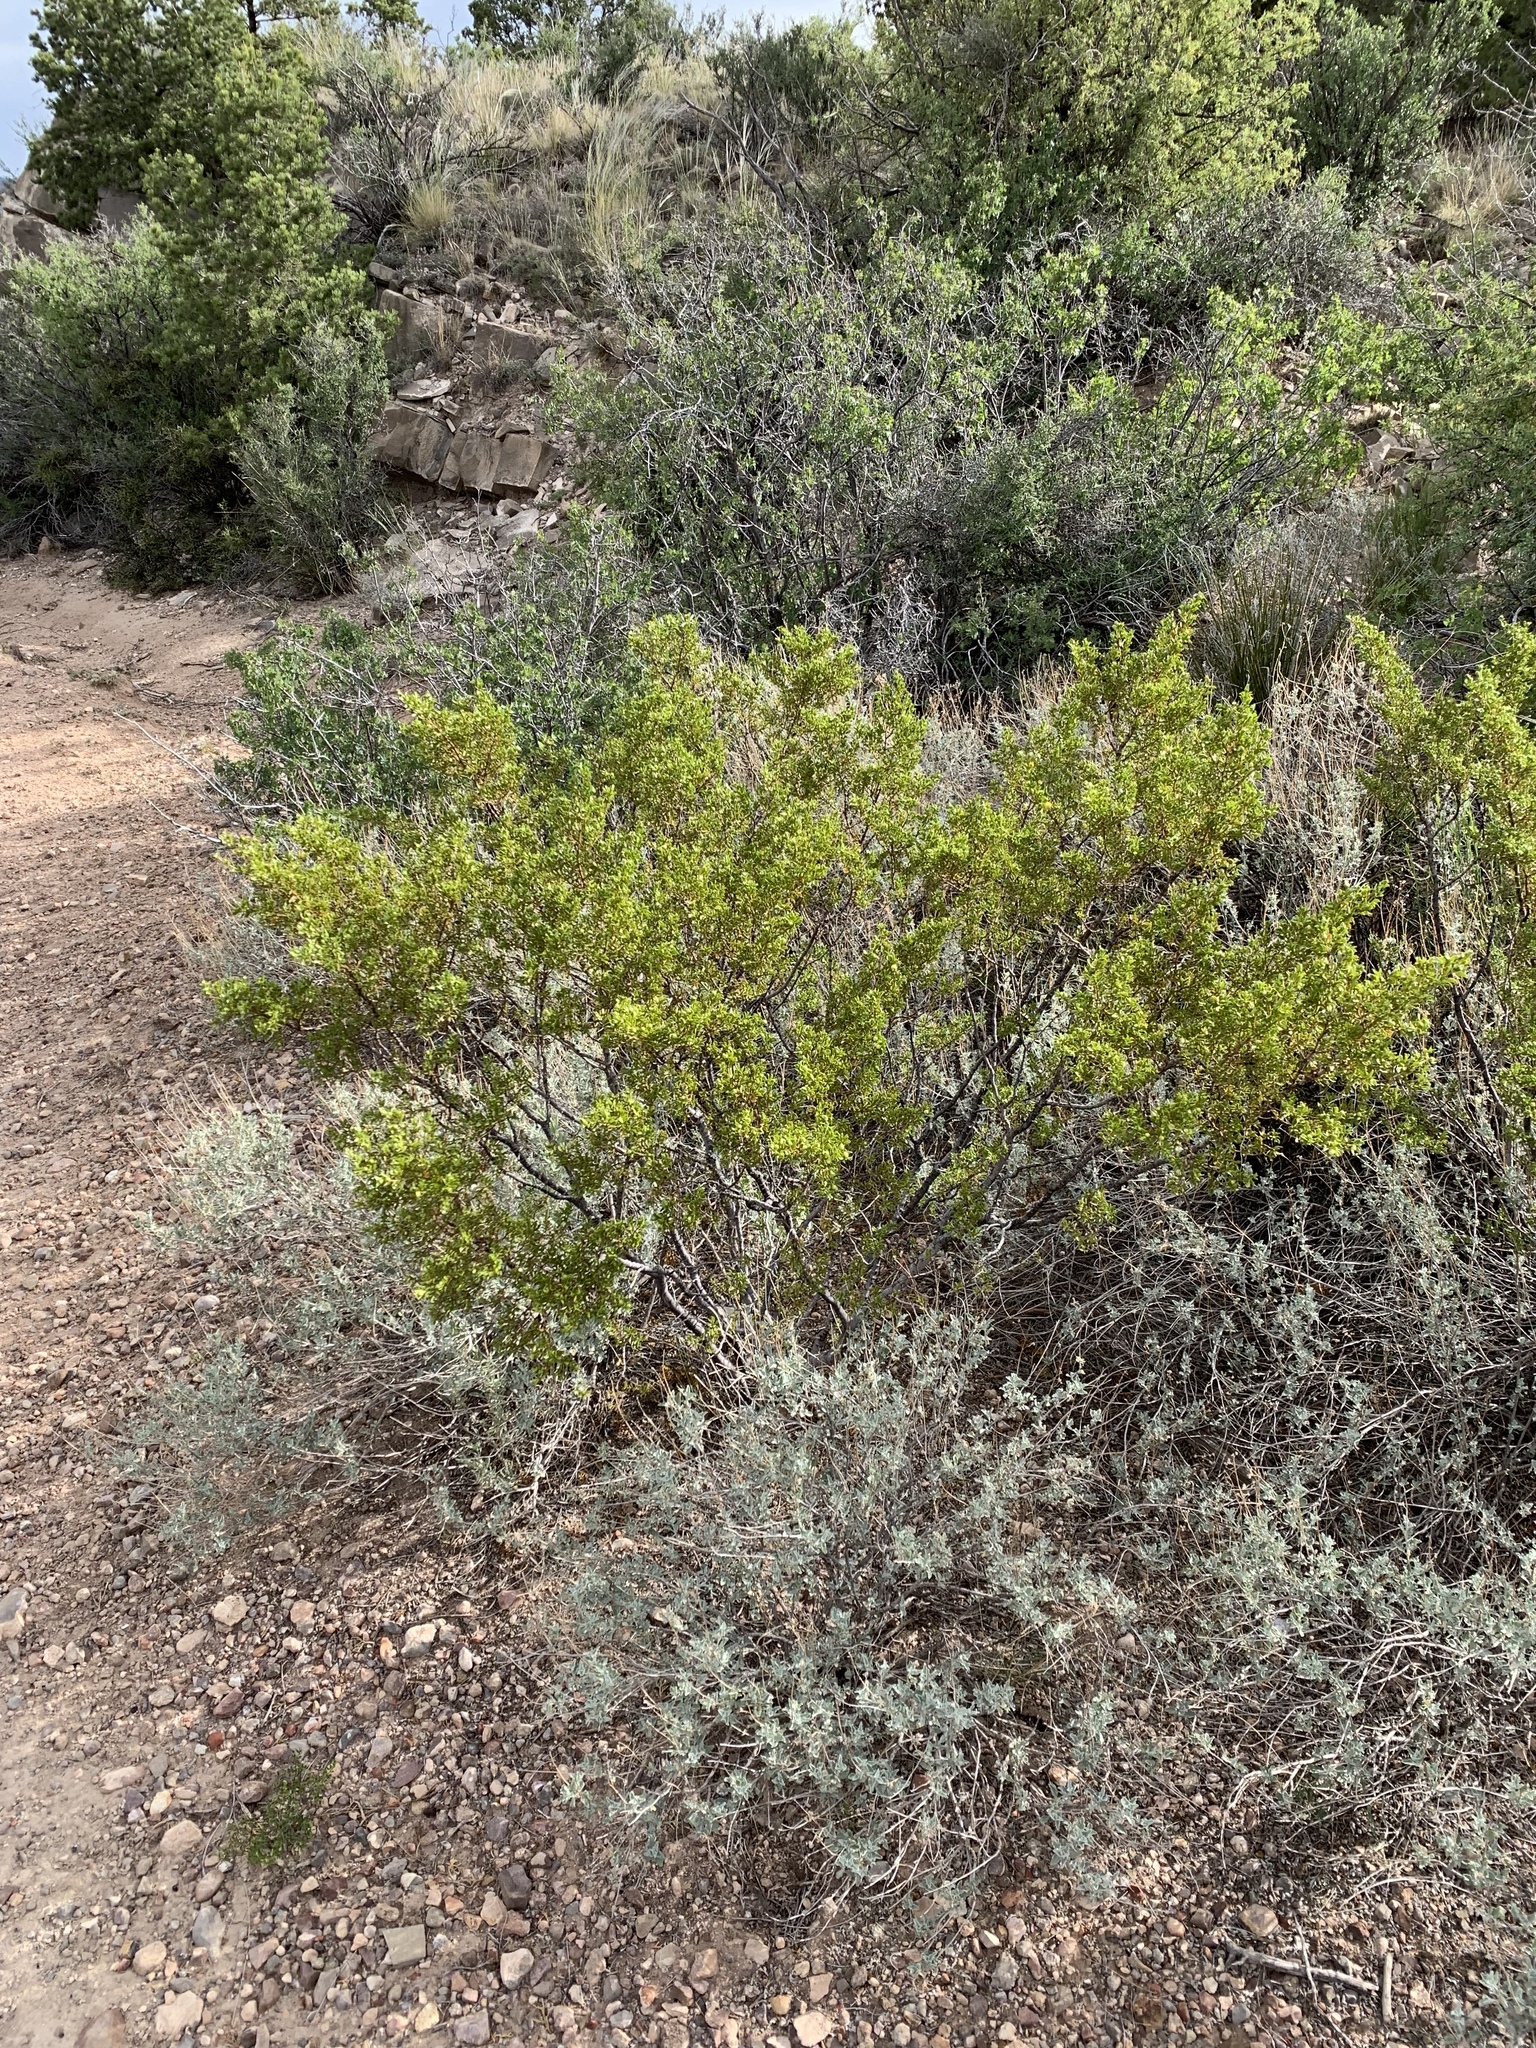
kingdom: Plantae
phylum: Tracheophyta
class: Magnoliopsida
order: Zygophyllales
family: Zygophyllaceae
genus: Larrea
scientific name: Larrea tridentata
